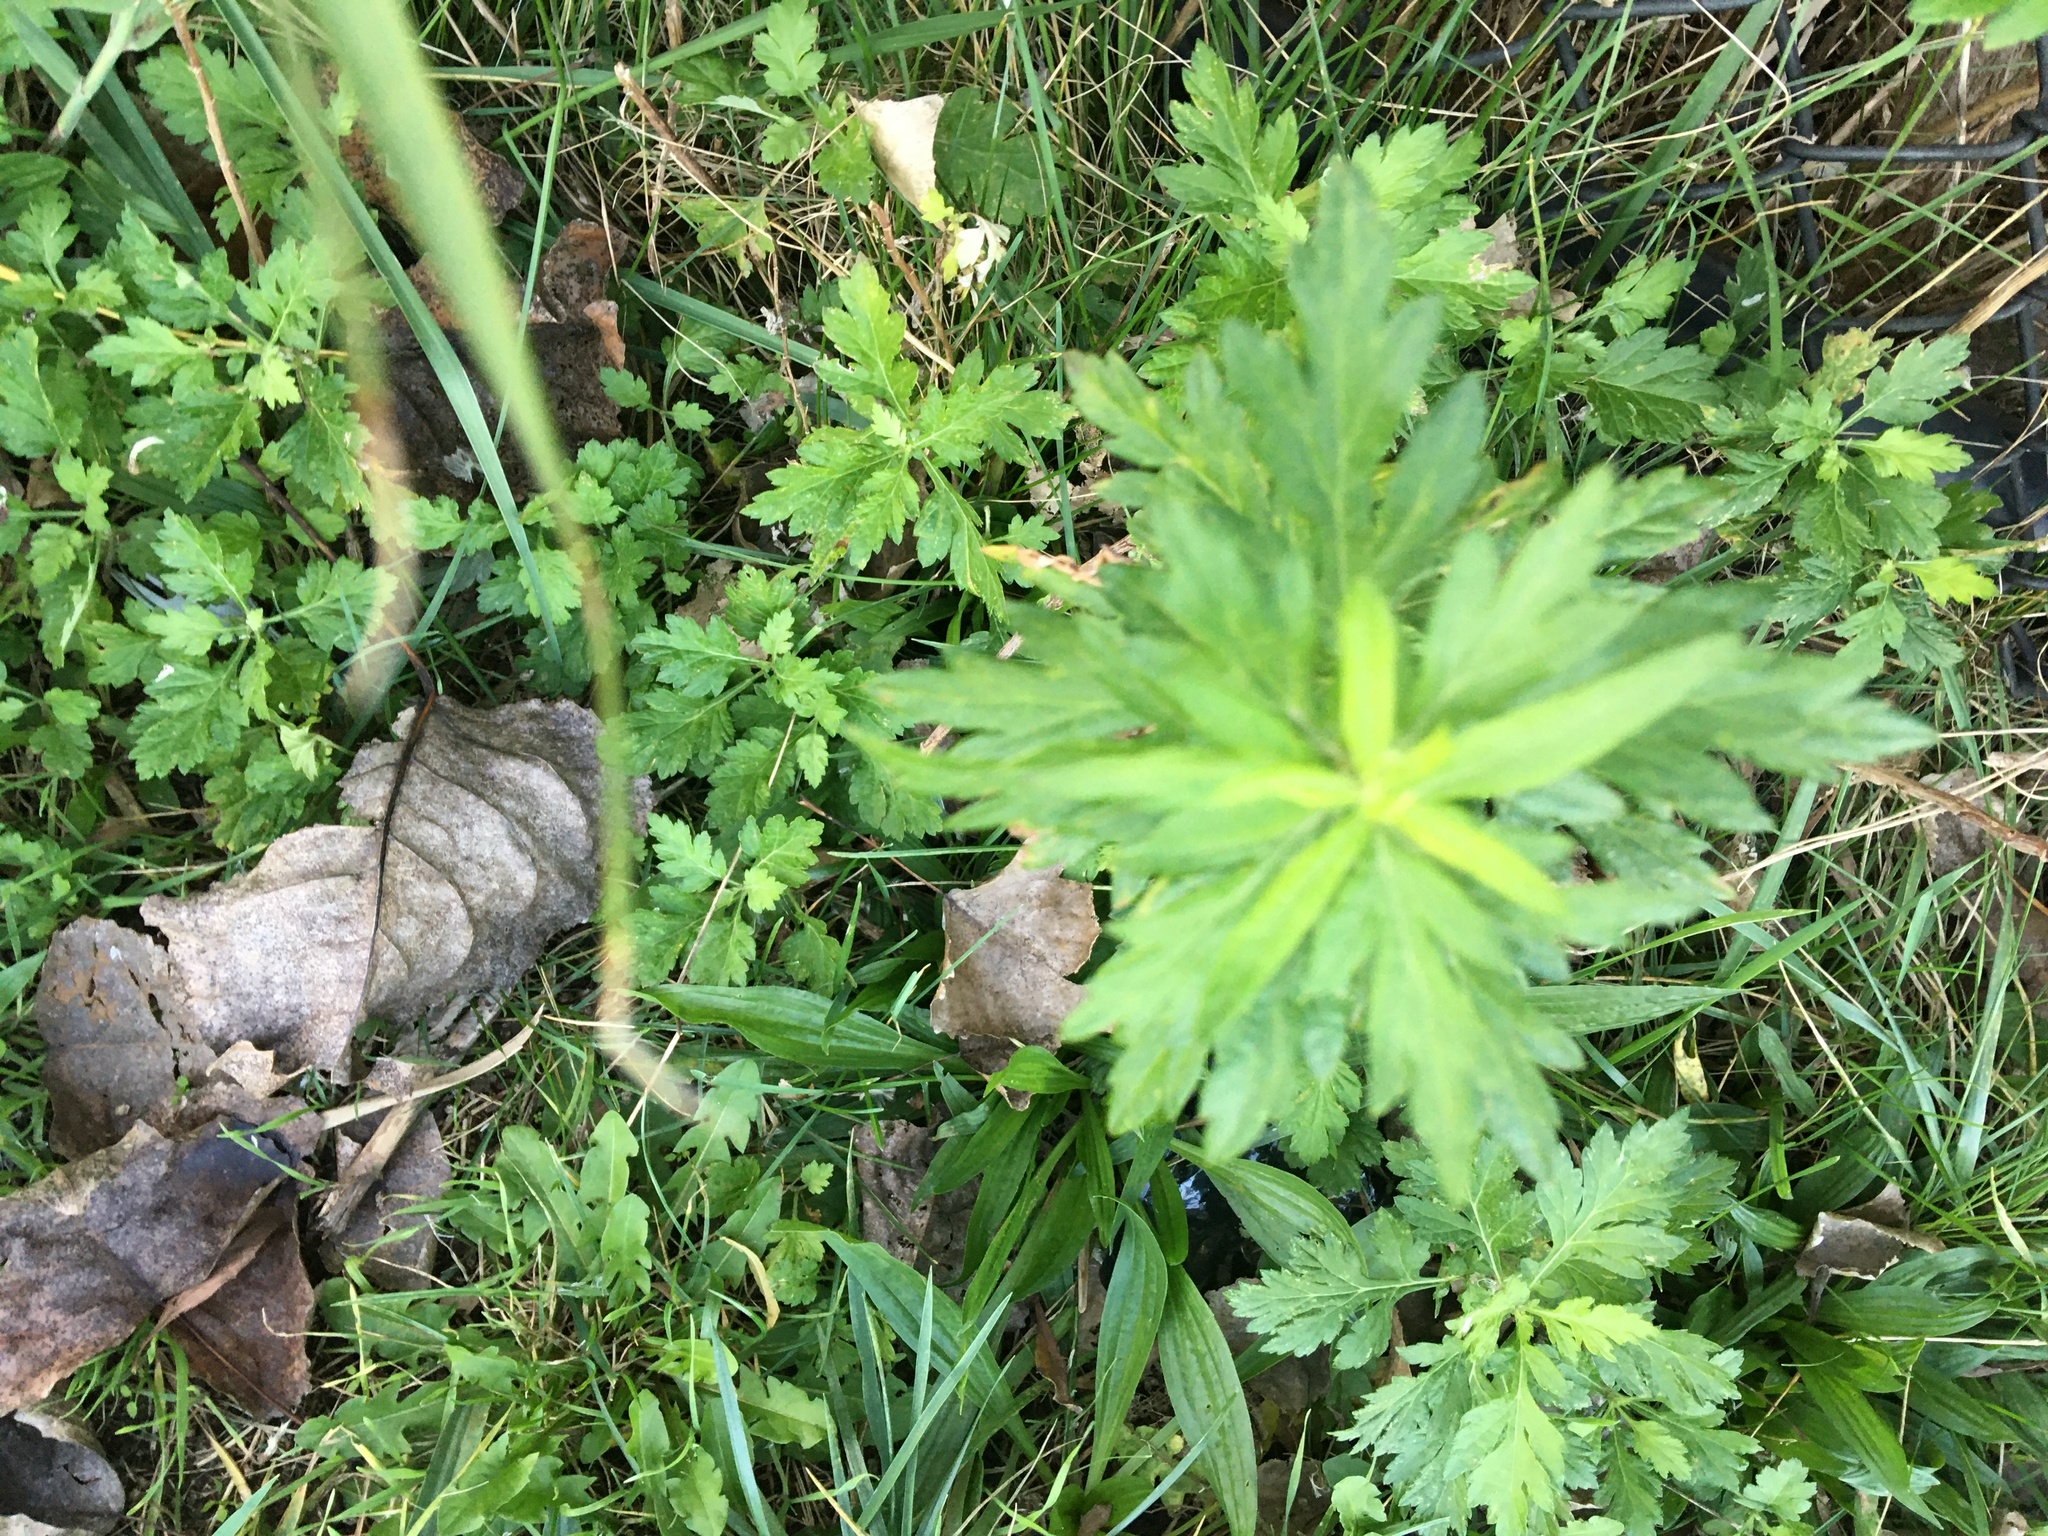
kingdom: Plantae
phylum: Tracheophyta
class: Magnoliopsida
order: Asterales
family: Asteraceae
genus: Artemisia
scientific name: Artemisia vulgaris
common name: Mugwort
